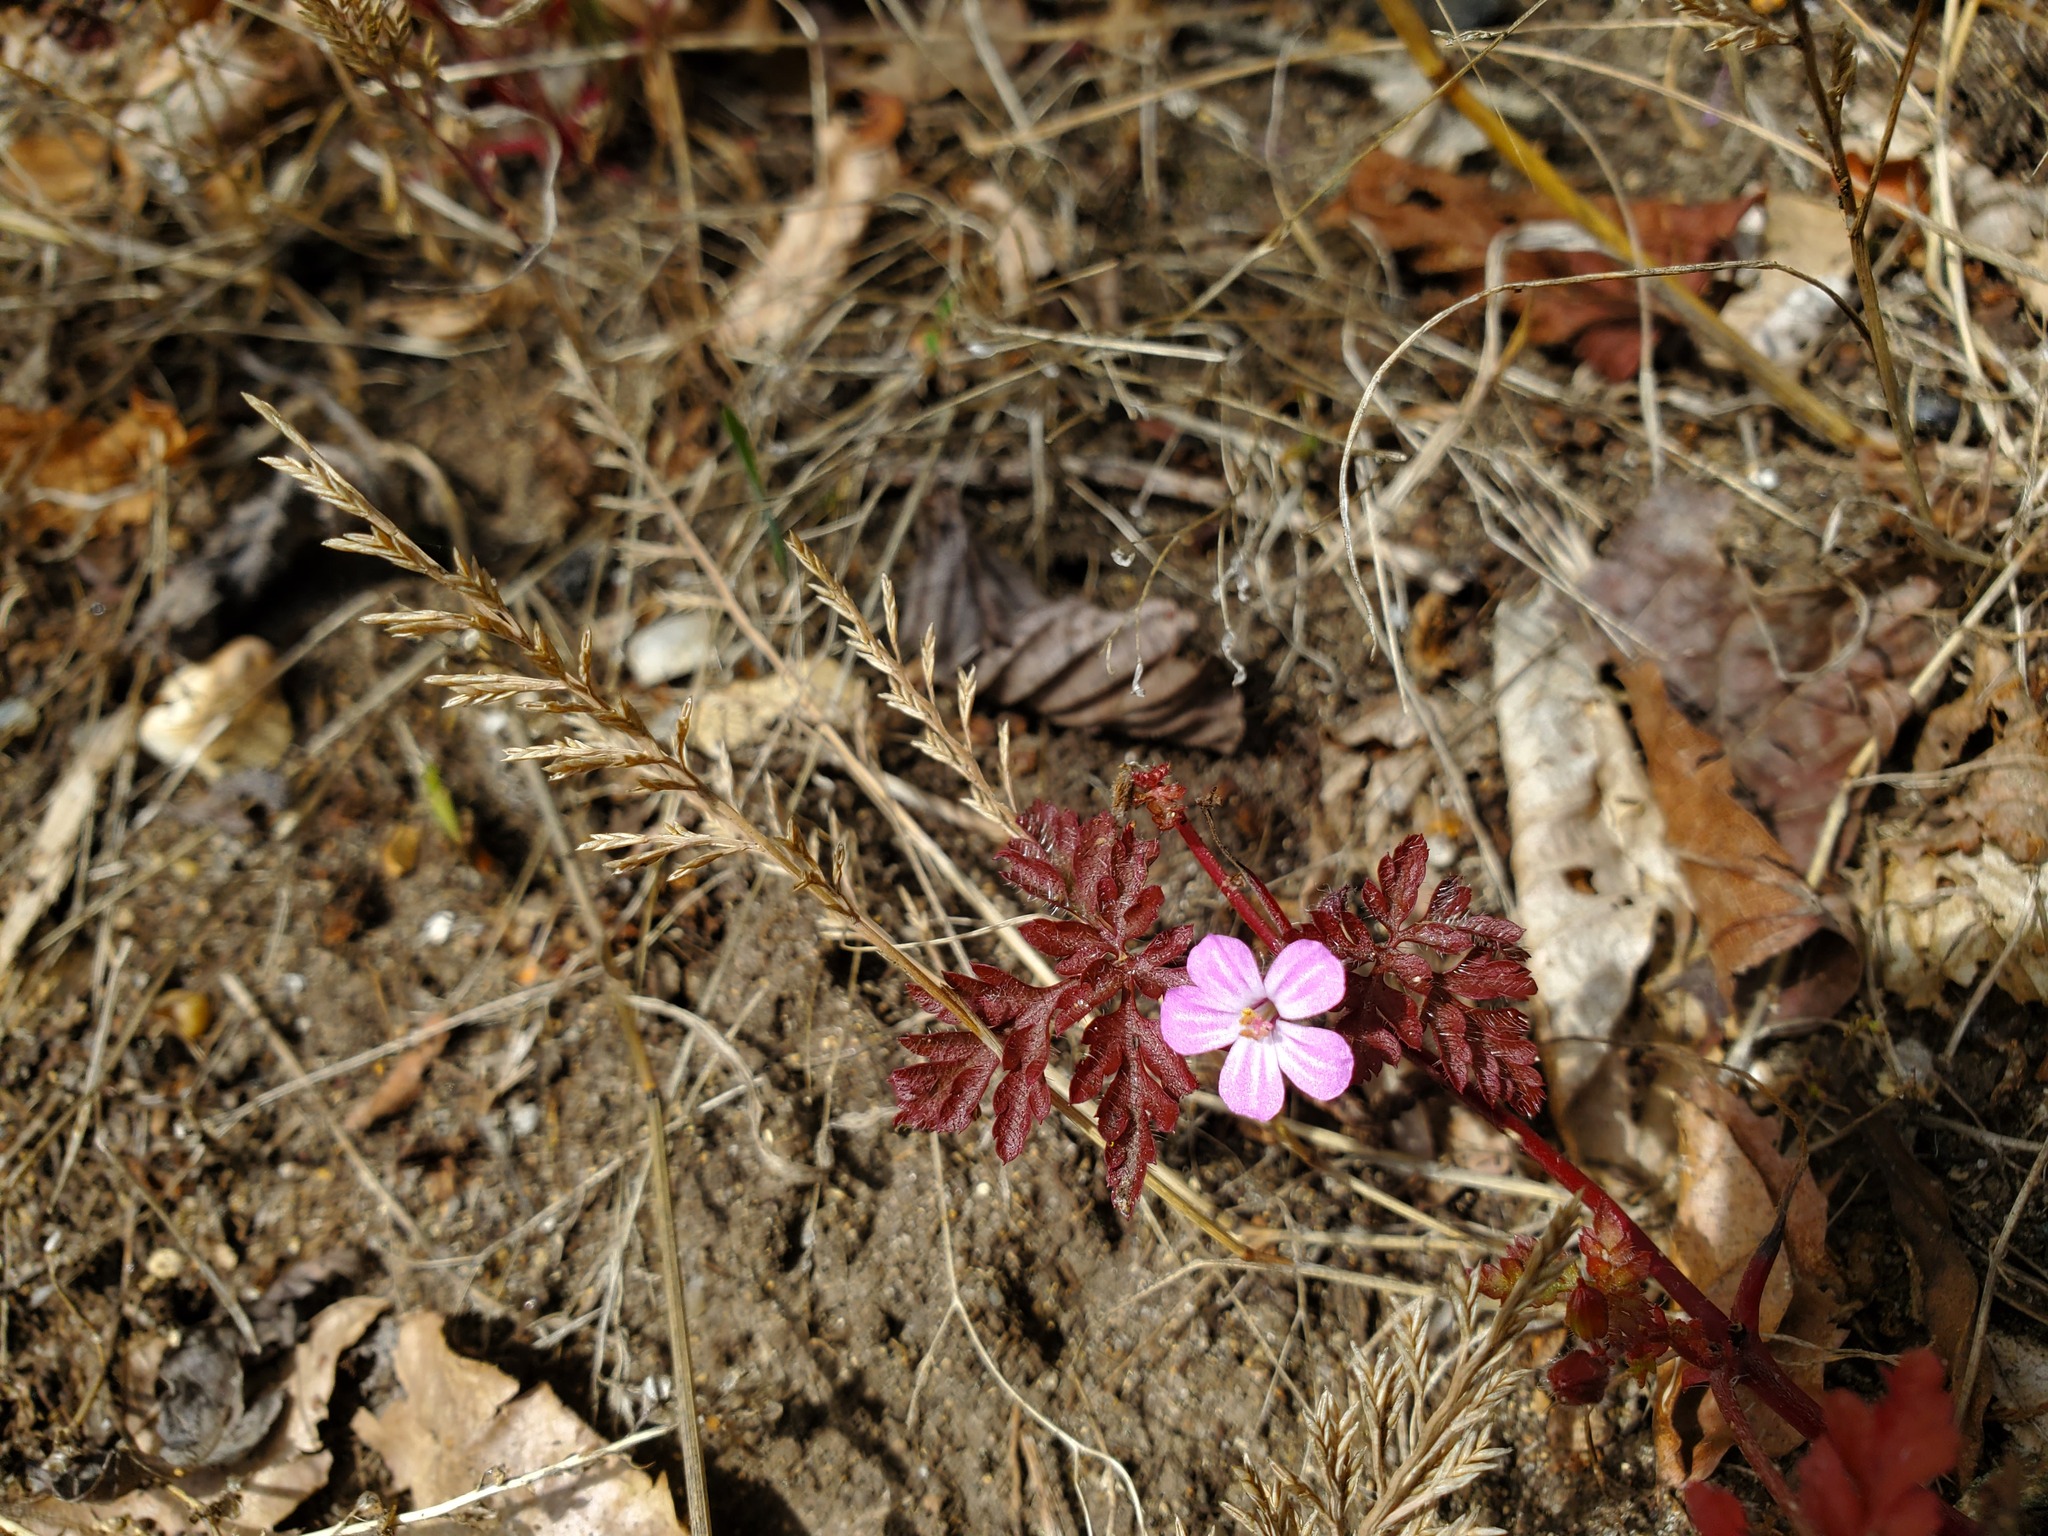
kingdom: Plantae
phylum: Tracheophyta
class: Magnoliopsida
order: Geraniales
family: Geraniaceae
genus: Geranium
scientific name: Geranium robertianum
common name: Herb-robert
